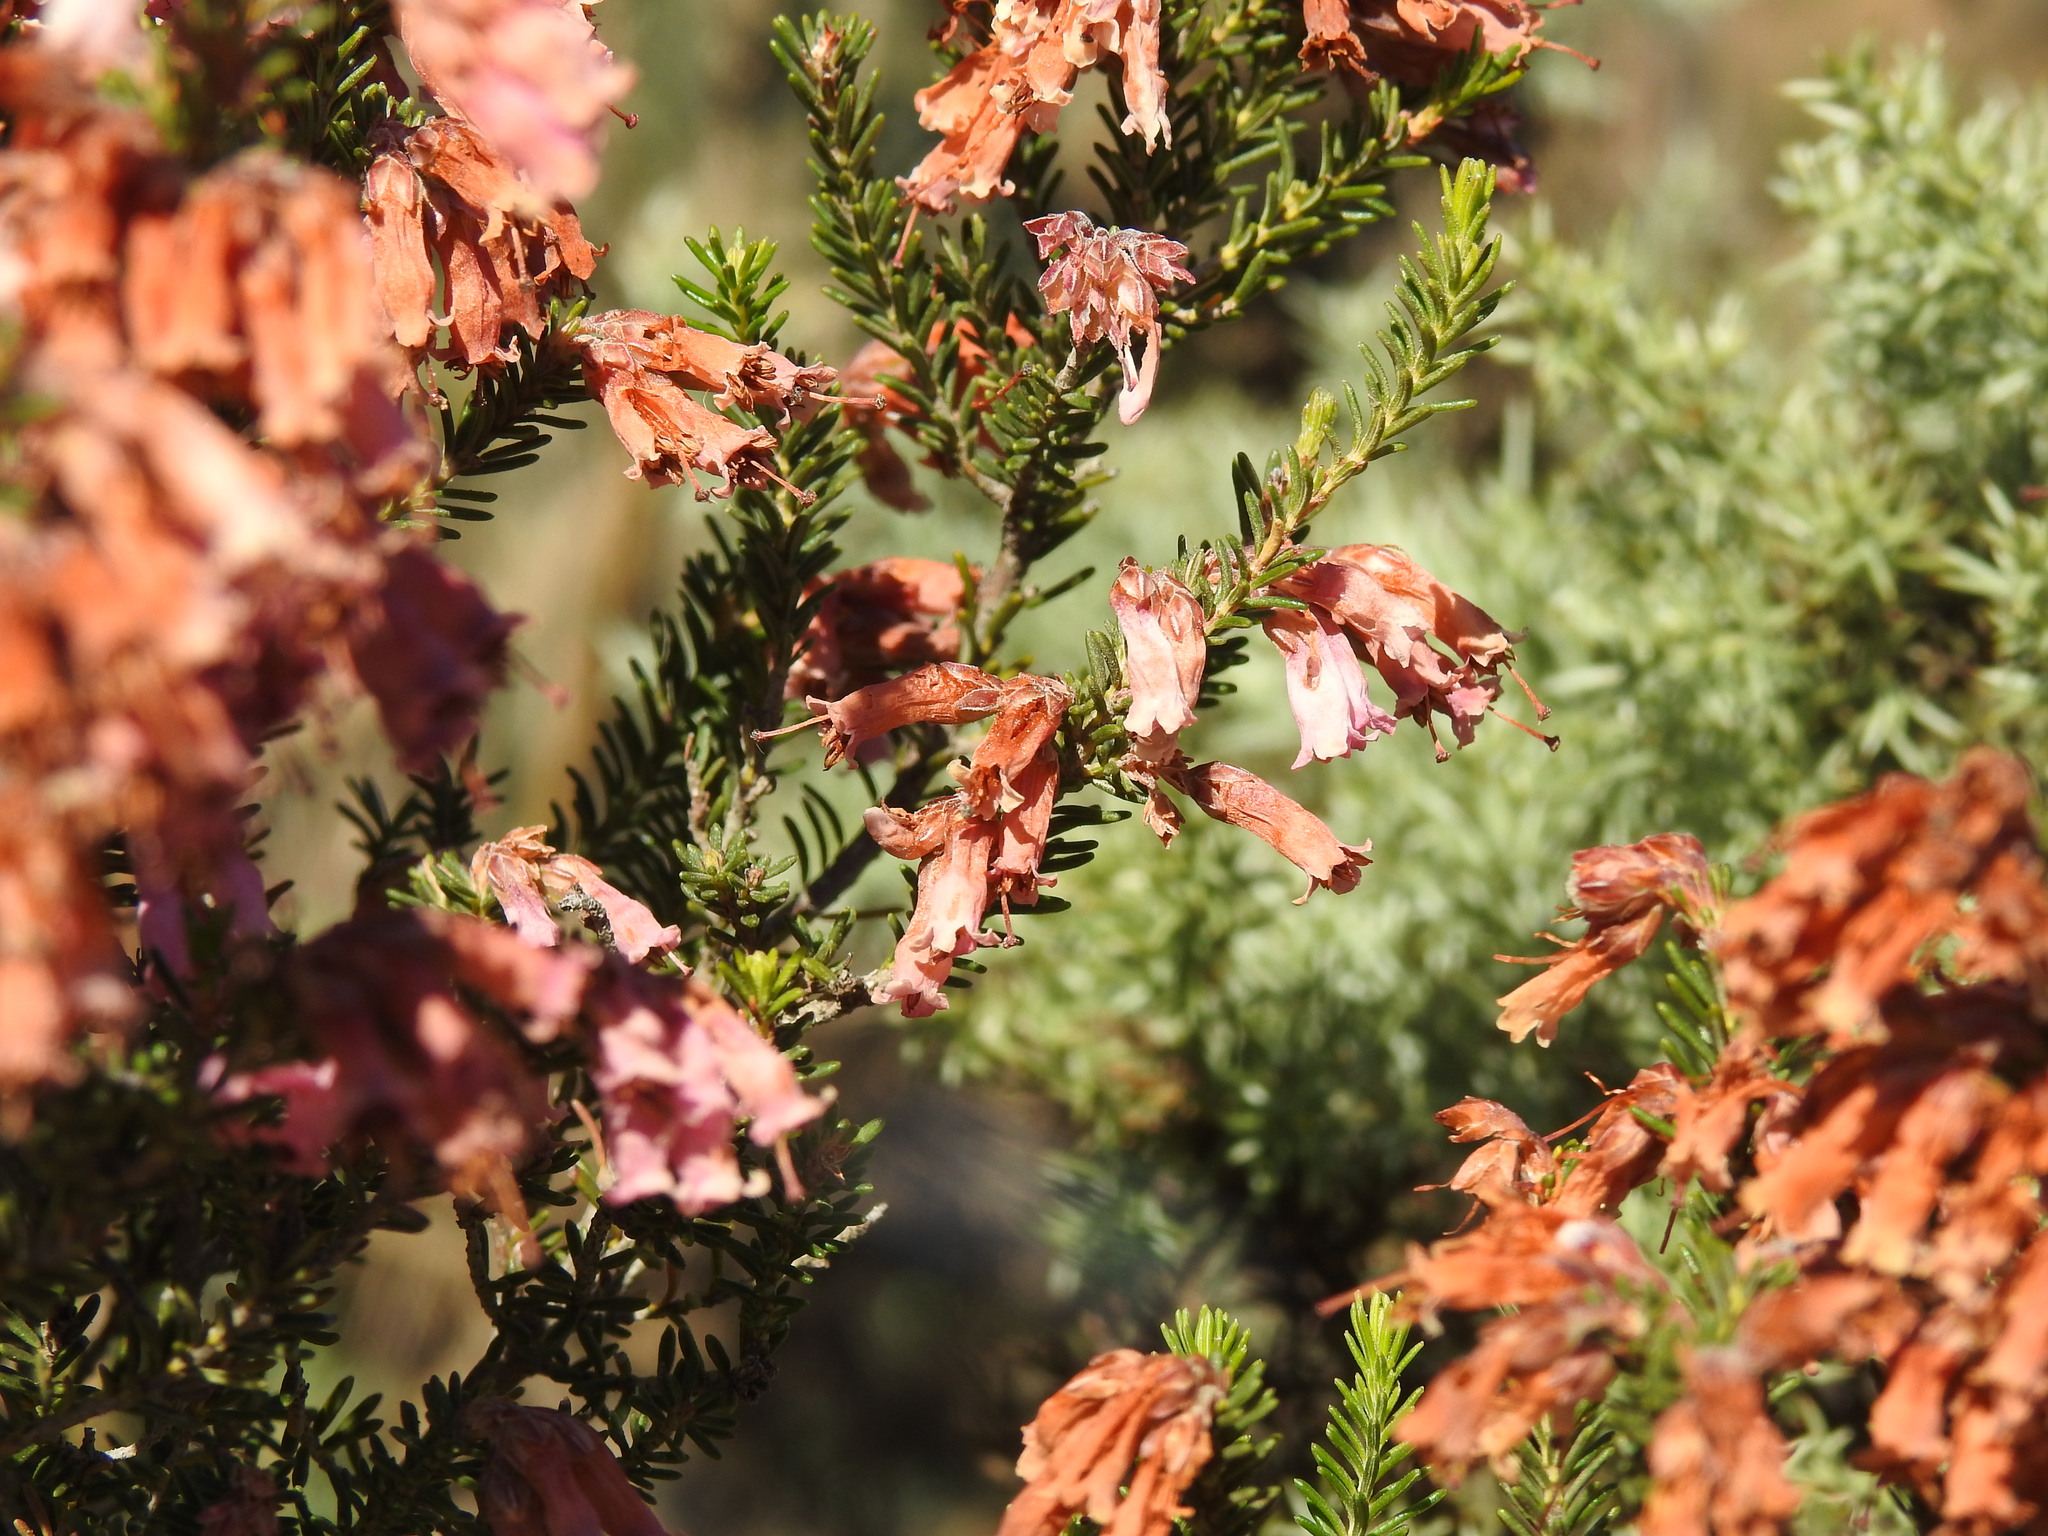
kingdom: Plantae
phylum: Tracheophyta
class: Magnoliopsida
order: Ericales
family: Ericaceae
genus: Erica
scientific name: Erica australis
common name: Spanish heath
